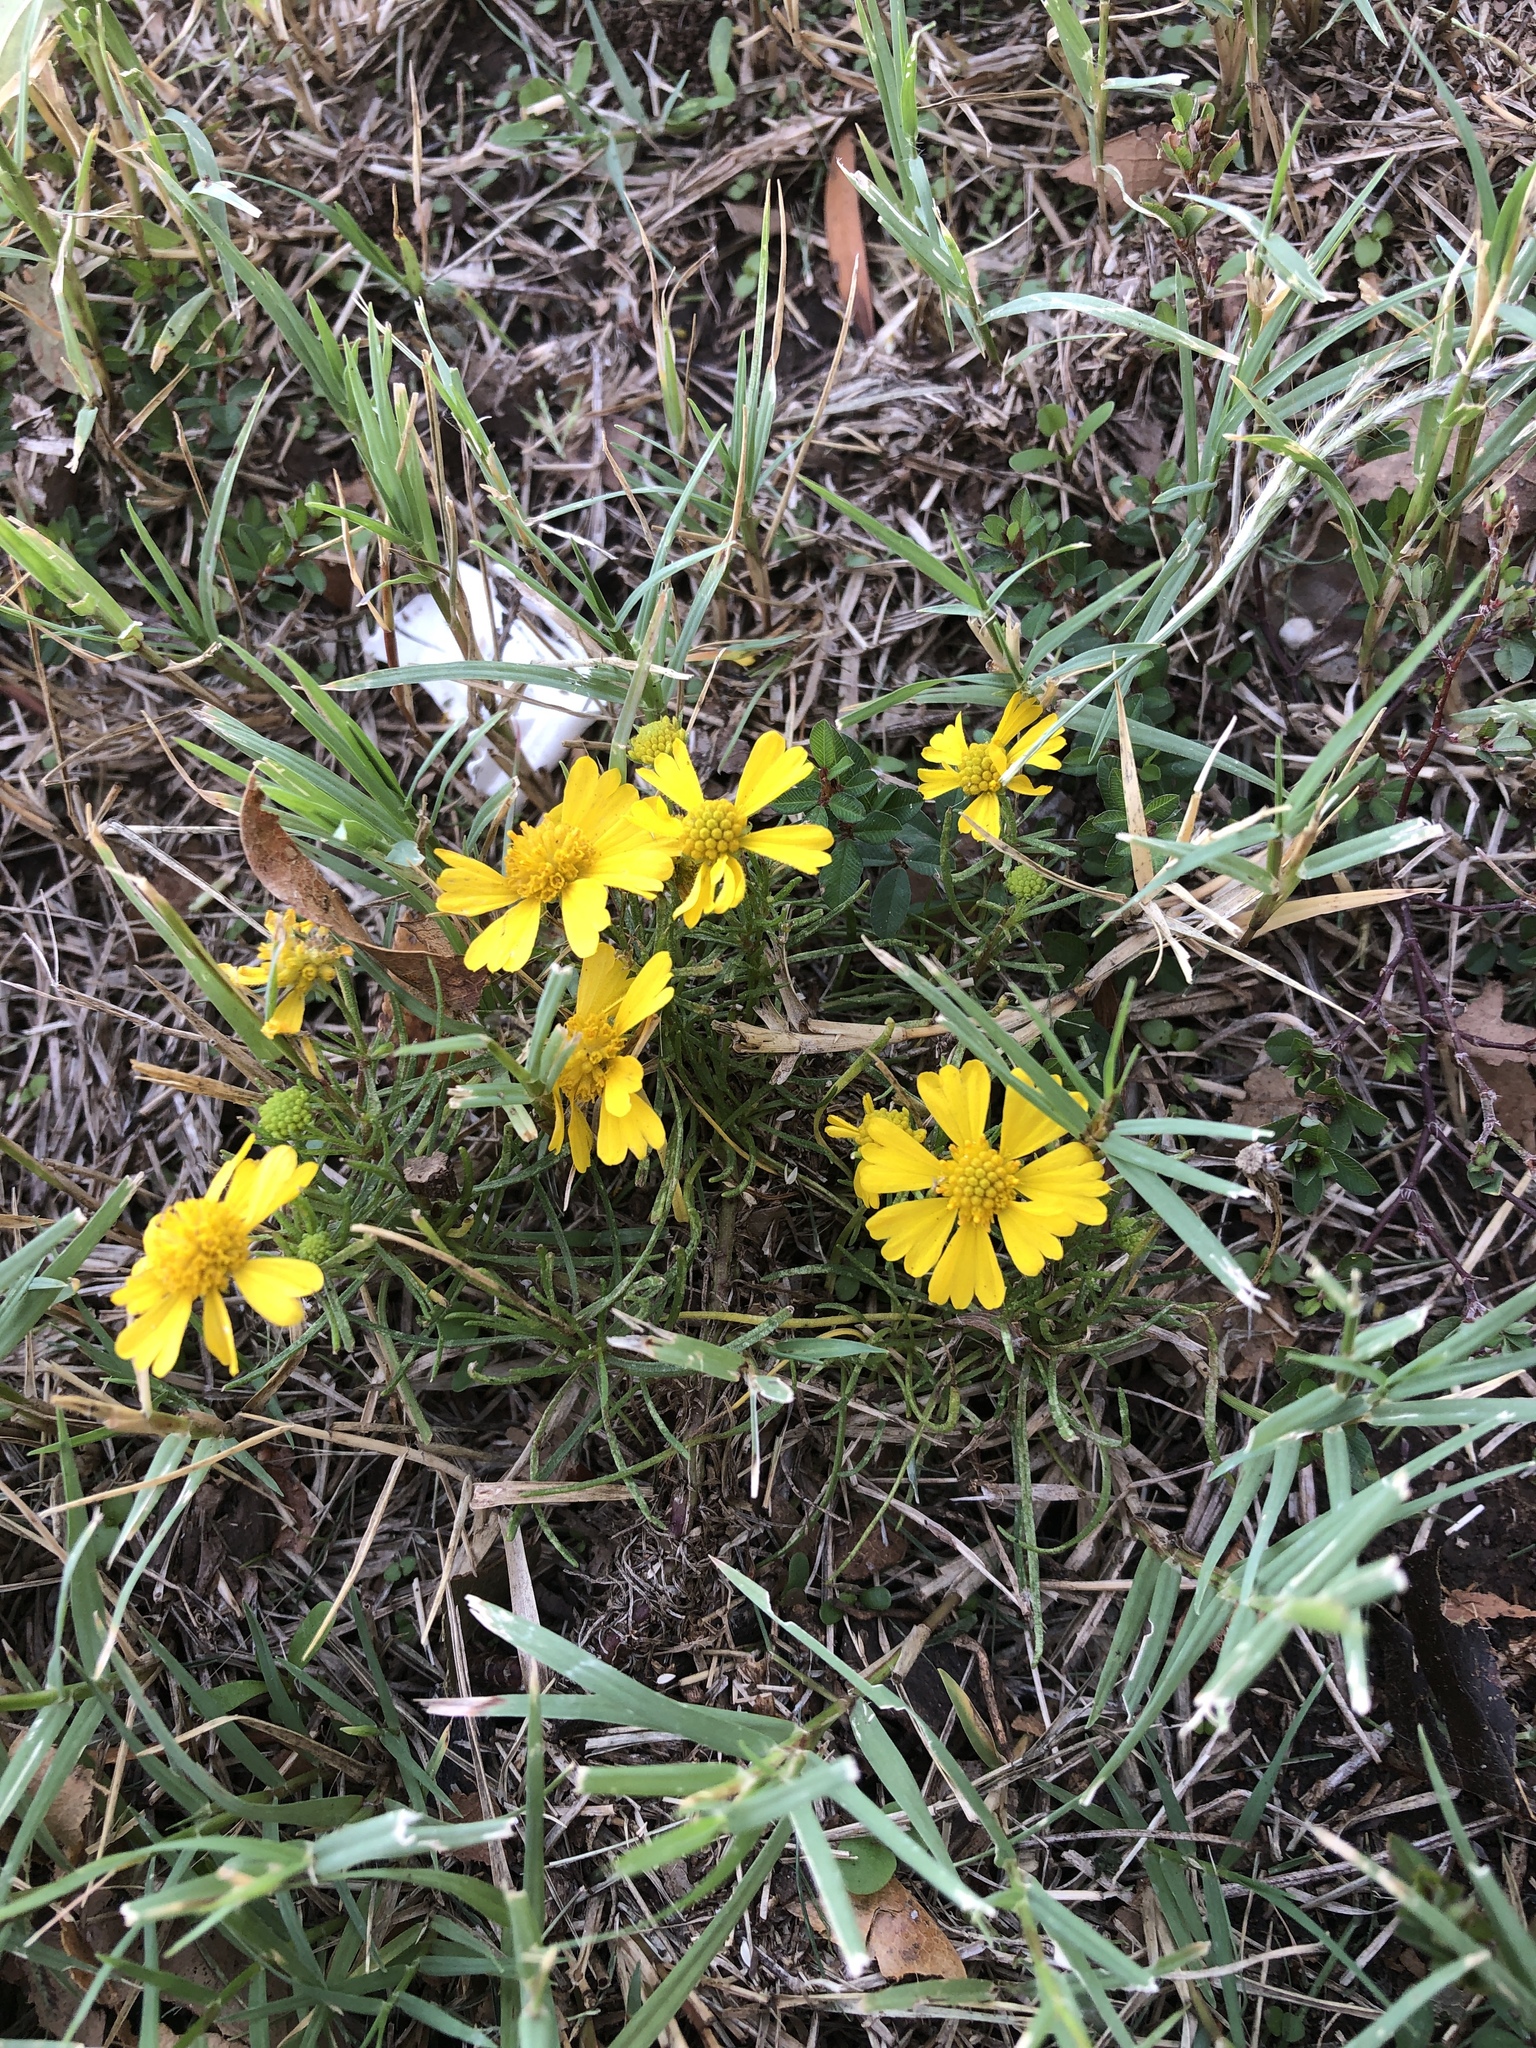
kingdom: Plantae
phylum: Tracheophyta
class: Magnoliopsida
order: Asterales
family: Asteraceae
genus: Helenium
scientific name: Helenium amarum
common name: Bitter sneezeweed
